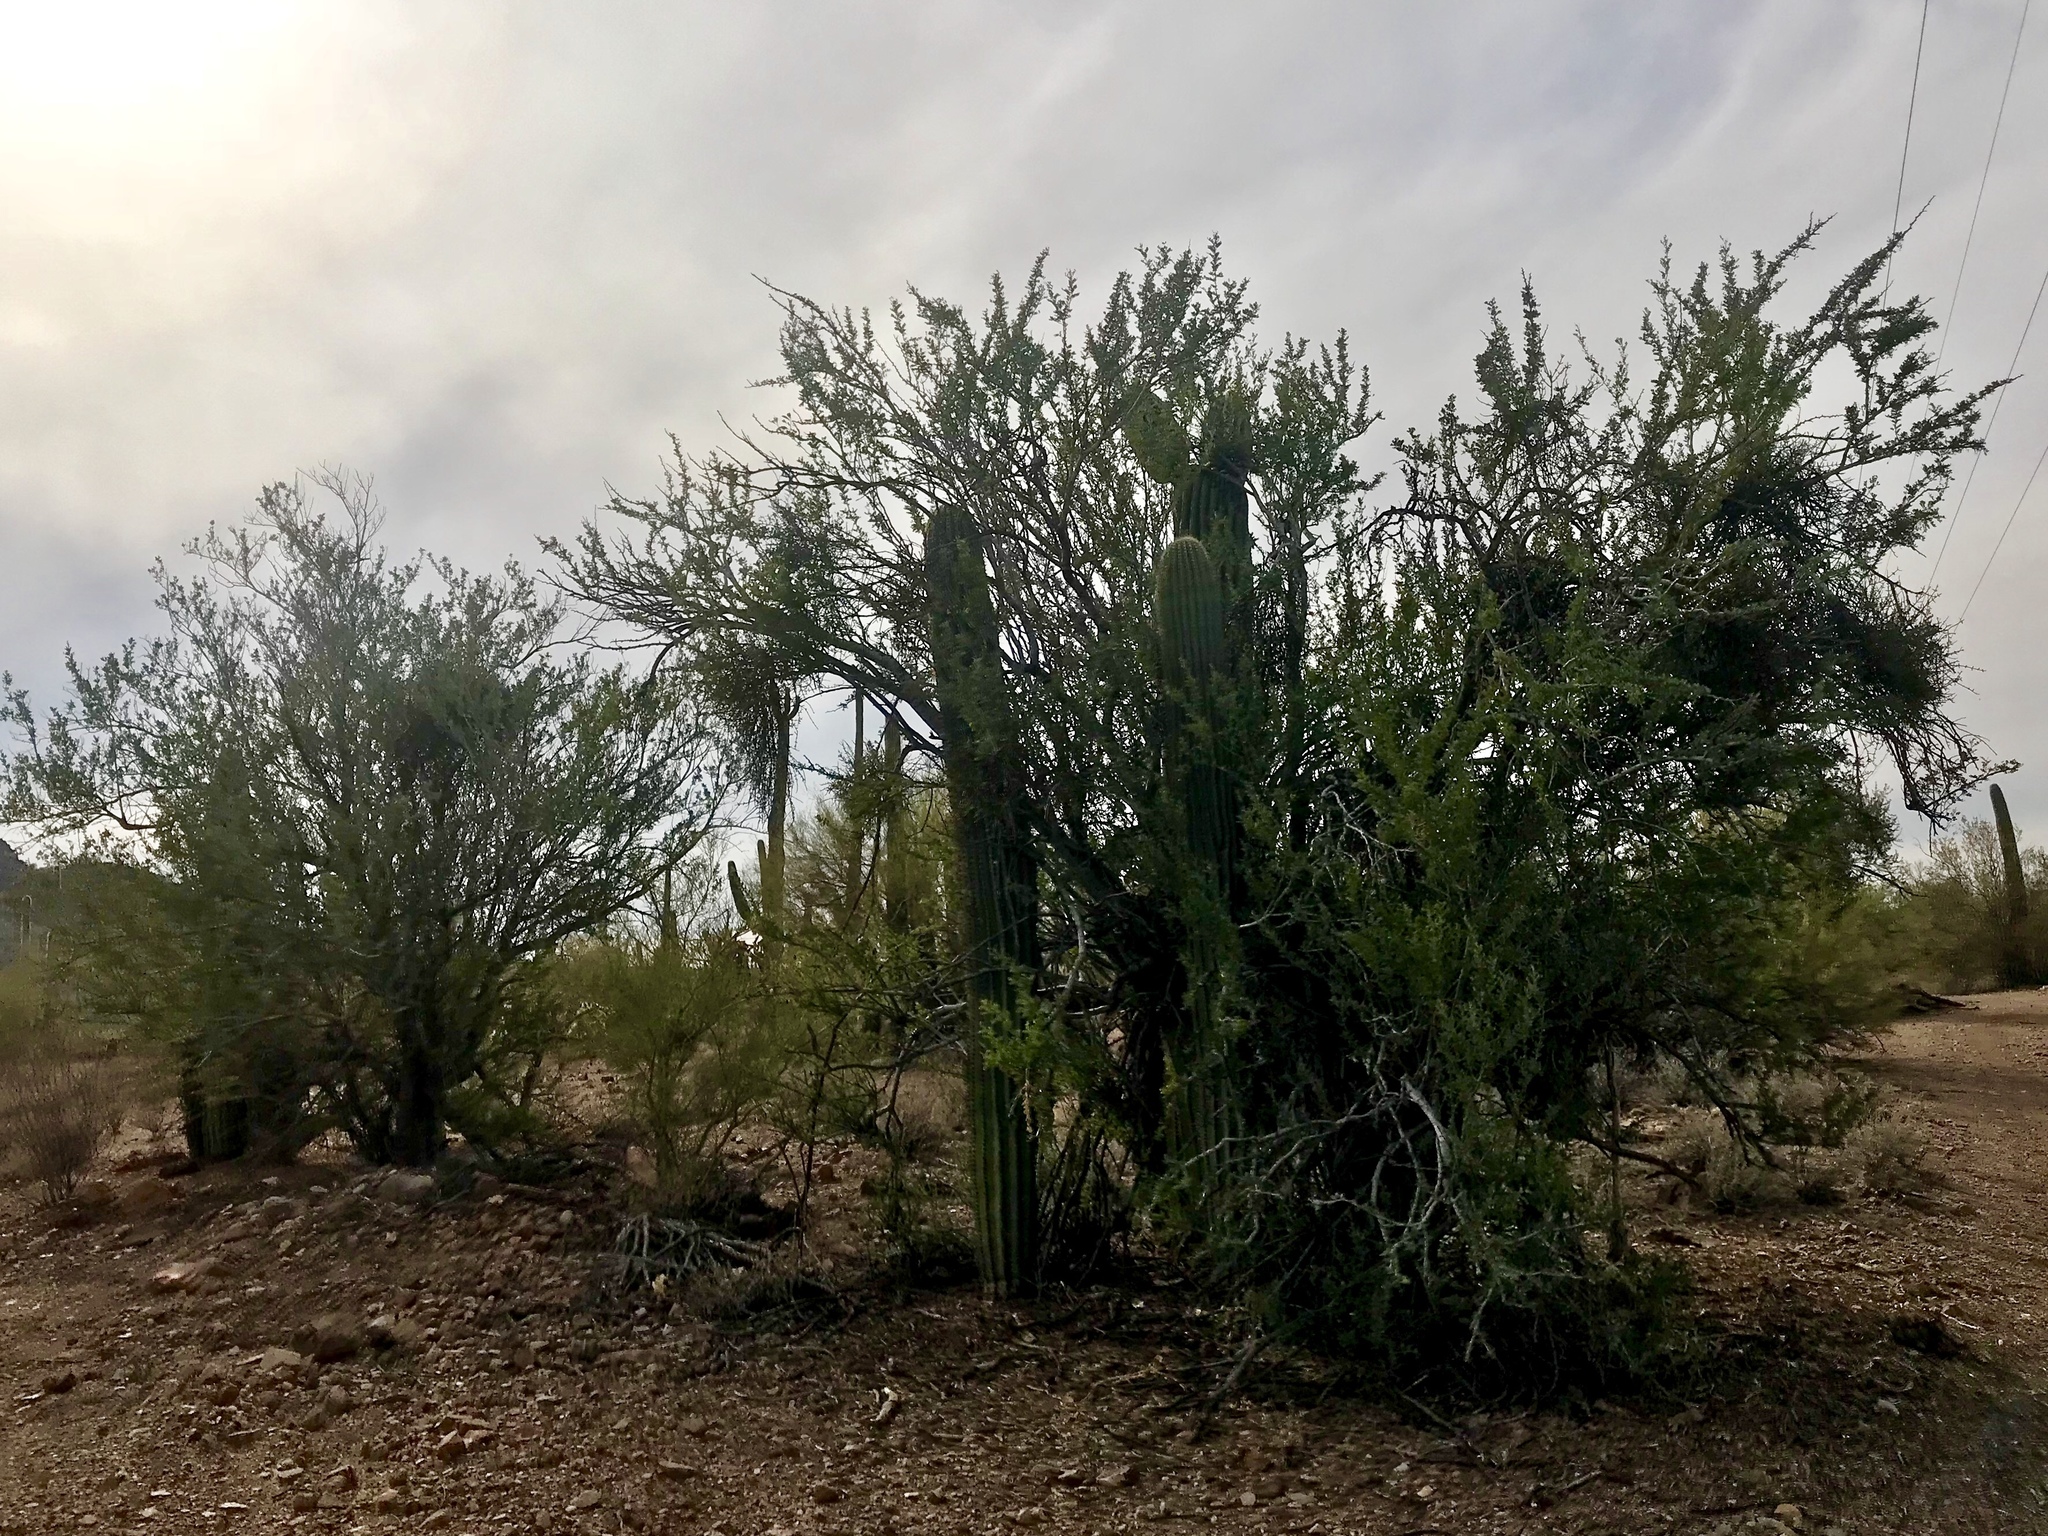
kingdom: Plantae
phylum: Tracheophyta
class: Magnoliopsida
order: Fabales
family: Fabaceae
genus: Olneya
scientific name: Olneya tesota
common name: Desert ironwood
